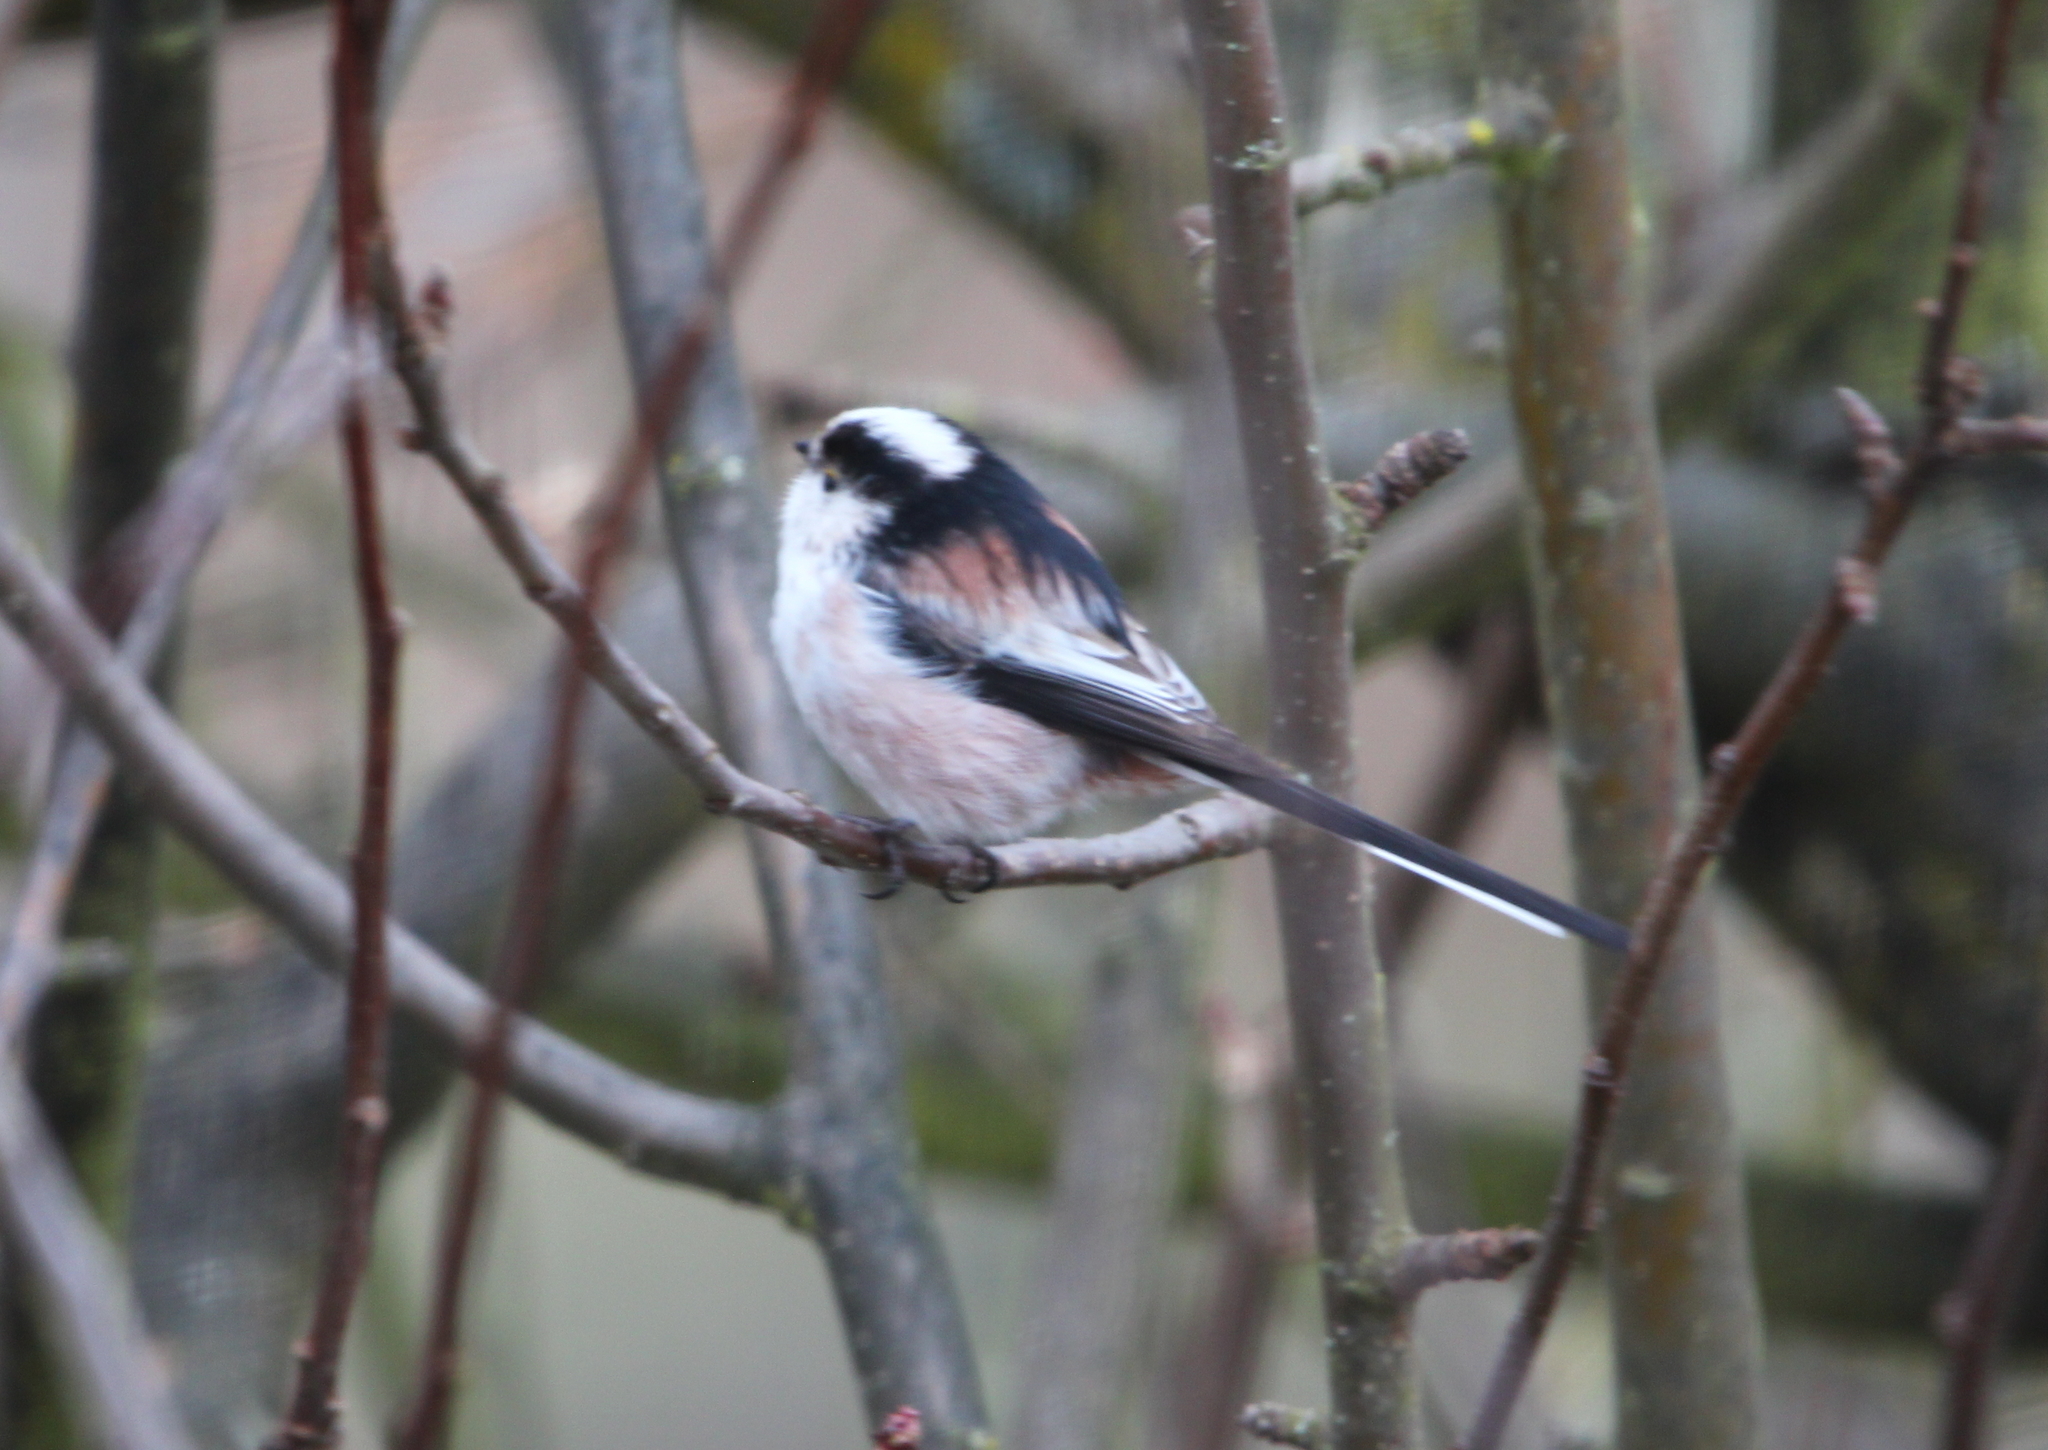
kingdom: Animalia
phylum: Chordata
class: Aves
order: Passeriformes
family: Aegithalidae
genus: Aegithalos
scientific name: Aegithalos caudatus
